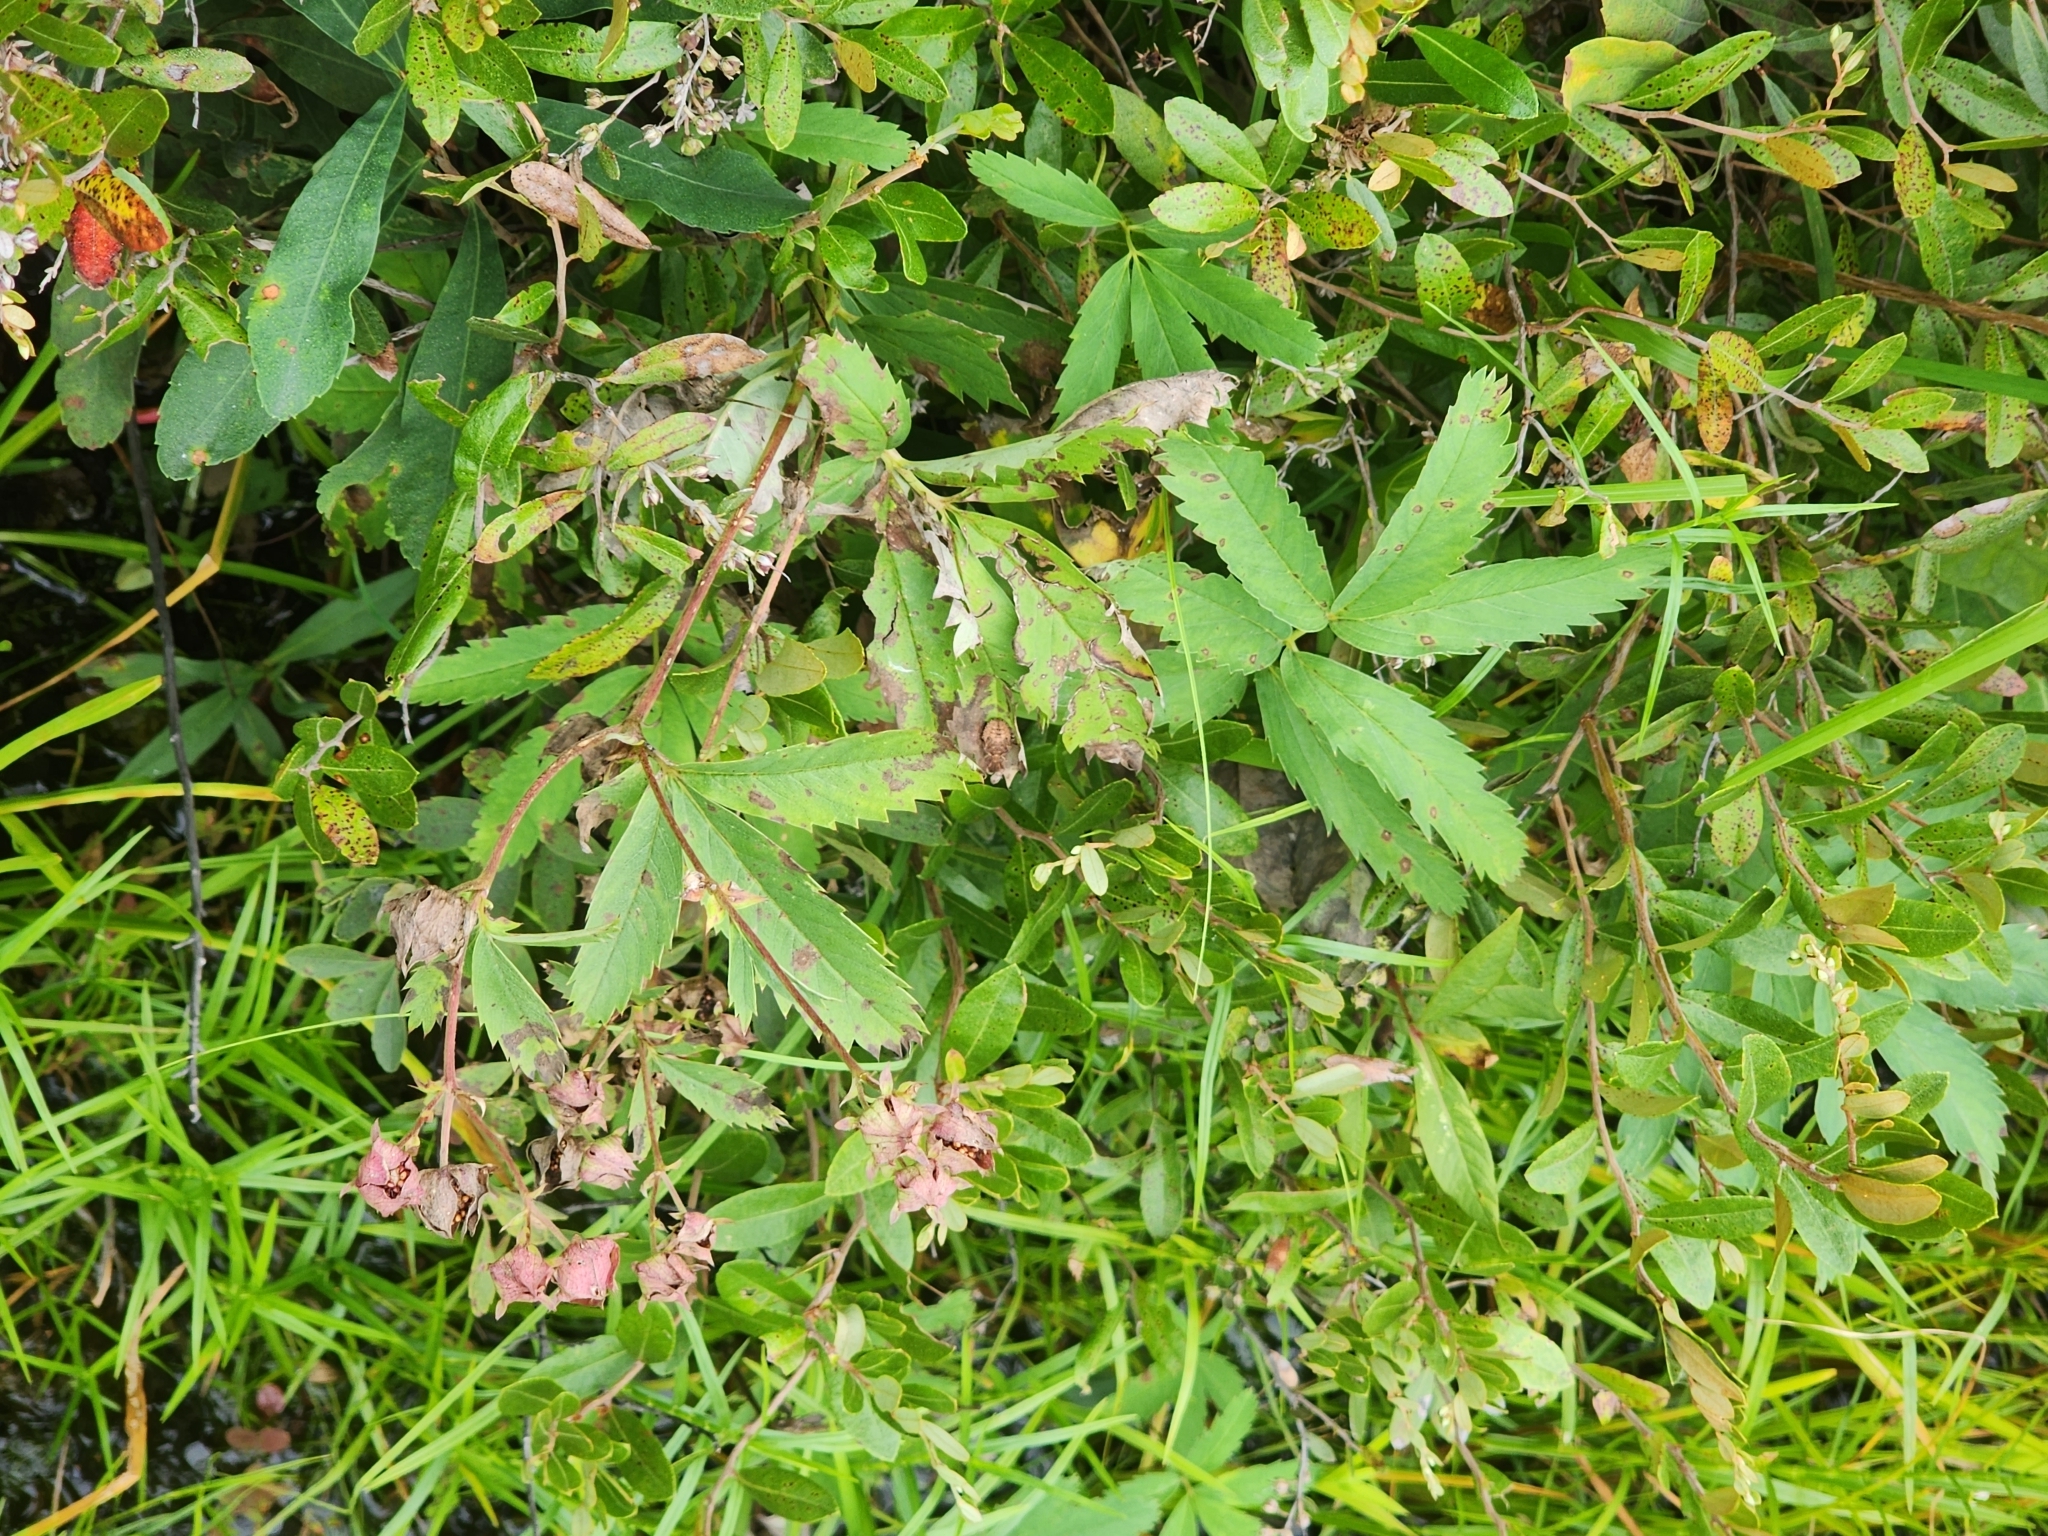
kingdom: Plantae
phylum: Tracheophyta
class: Magnoliopsida
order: Rosales
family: Rosaceae
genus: Comarum
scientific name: Comarum palustre
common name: Marsh cinquefoil
